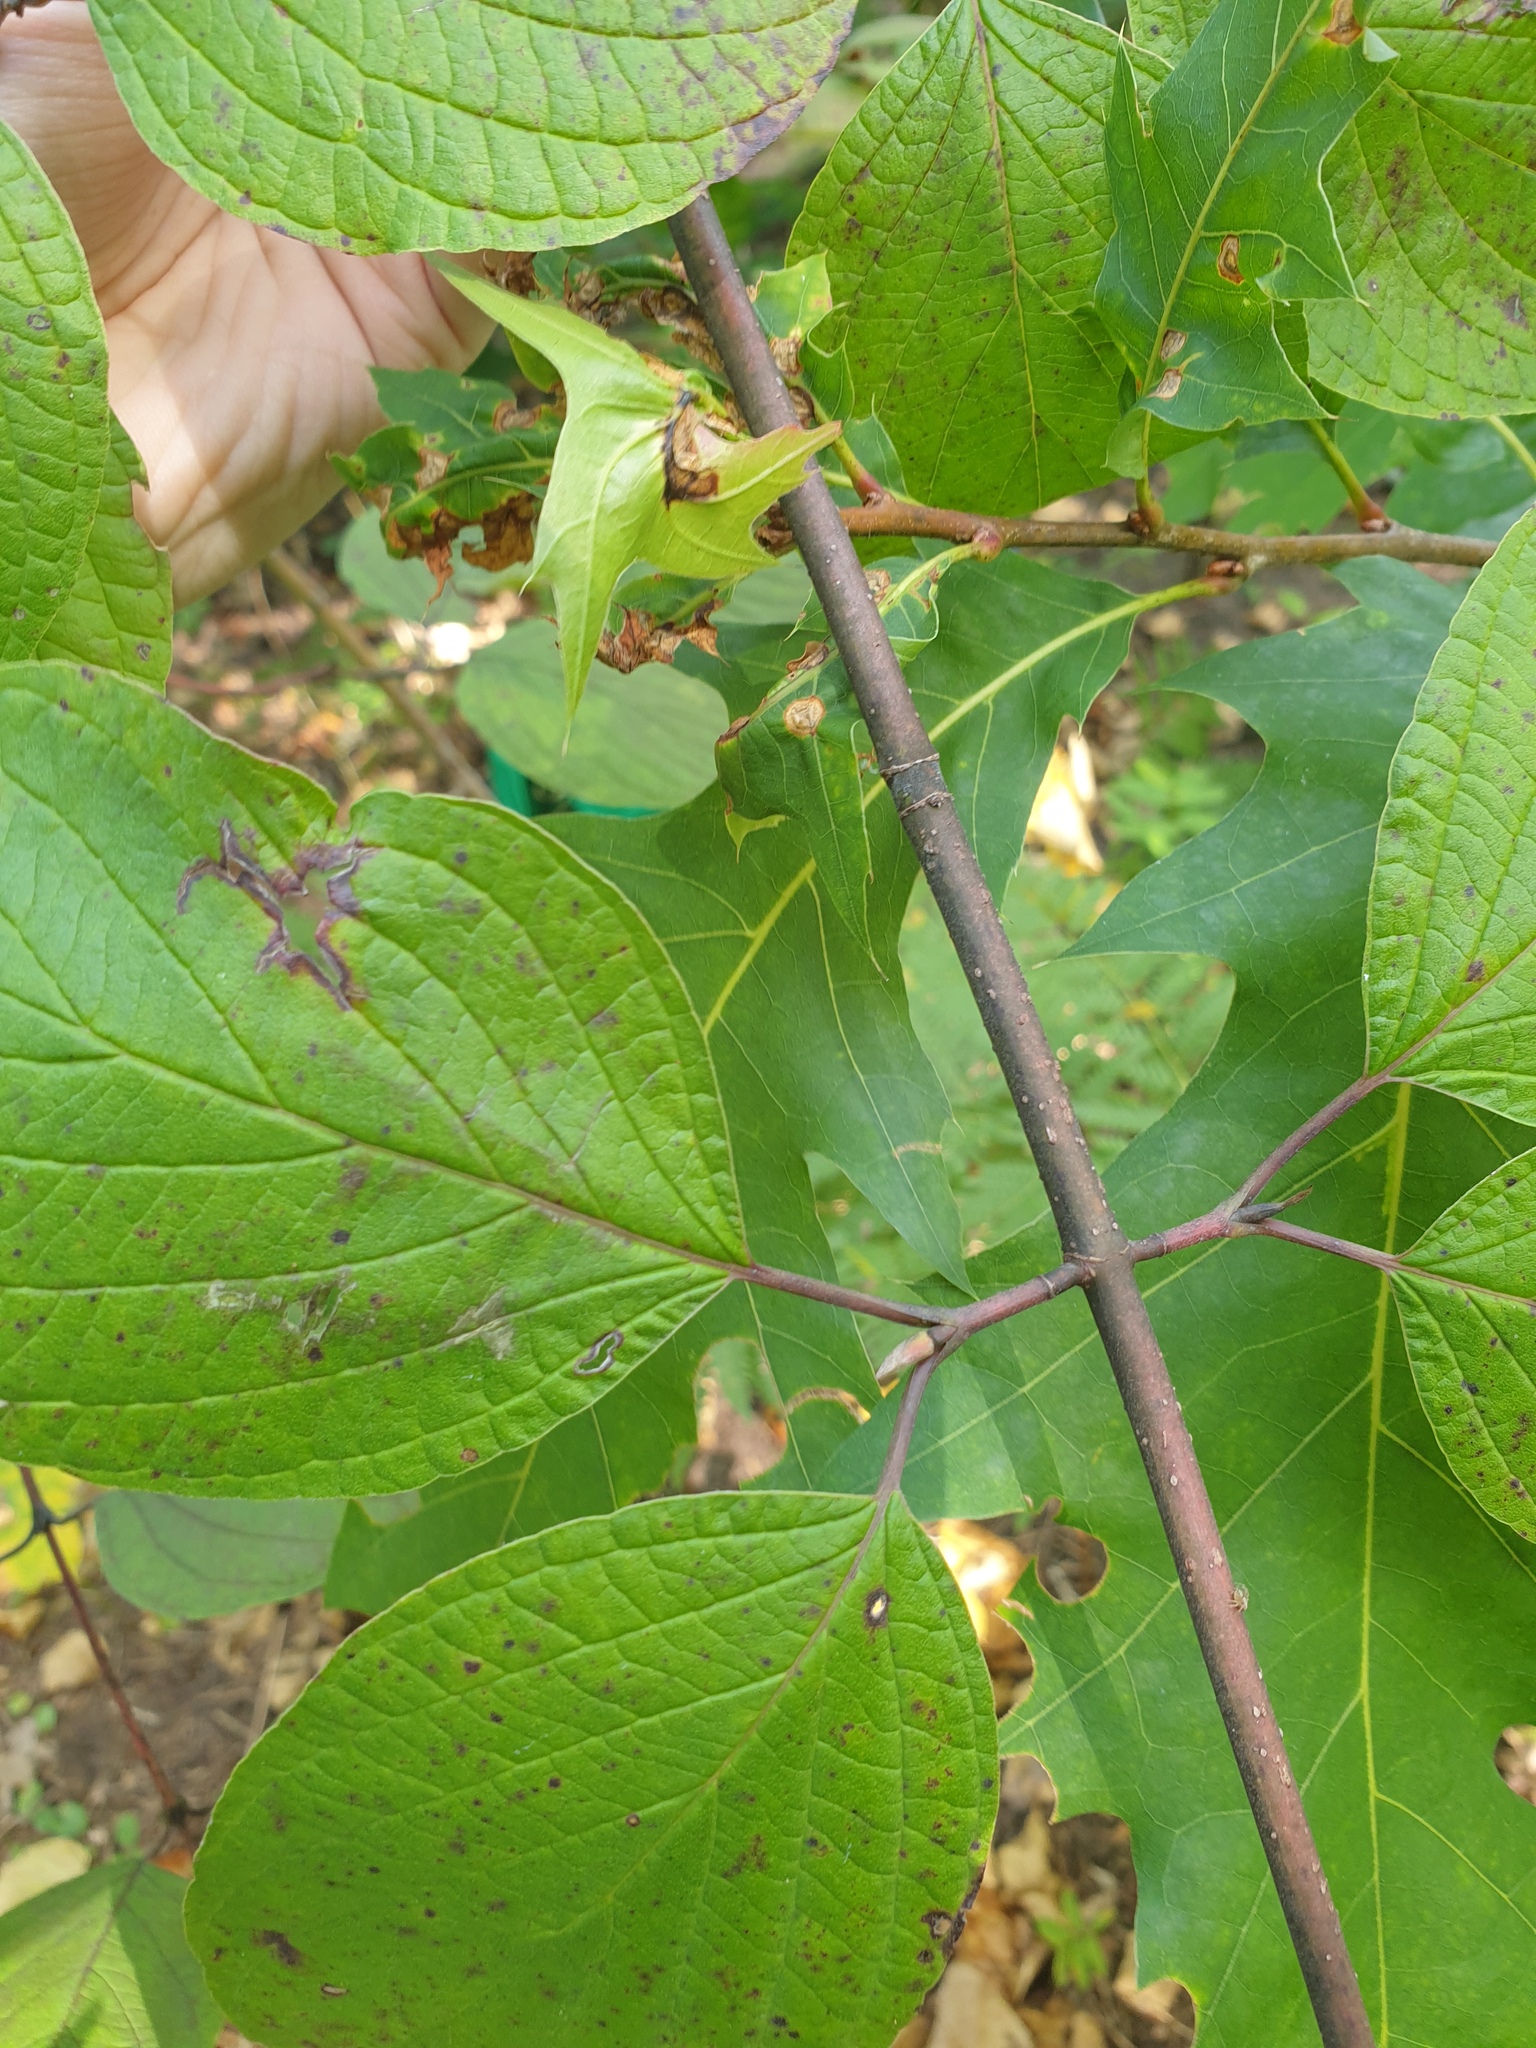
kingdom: Plantae
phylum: Tracheophyta
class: Magnoliopsida
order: Cornales
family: Cornaceae
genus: Cornus
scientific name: Cornus rugosa
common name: Round-leaf dogwood
